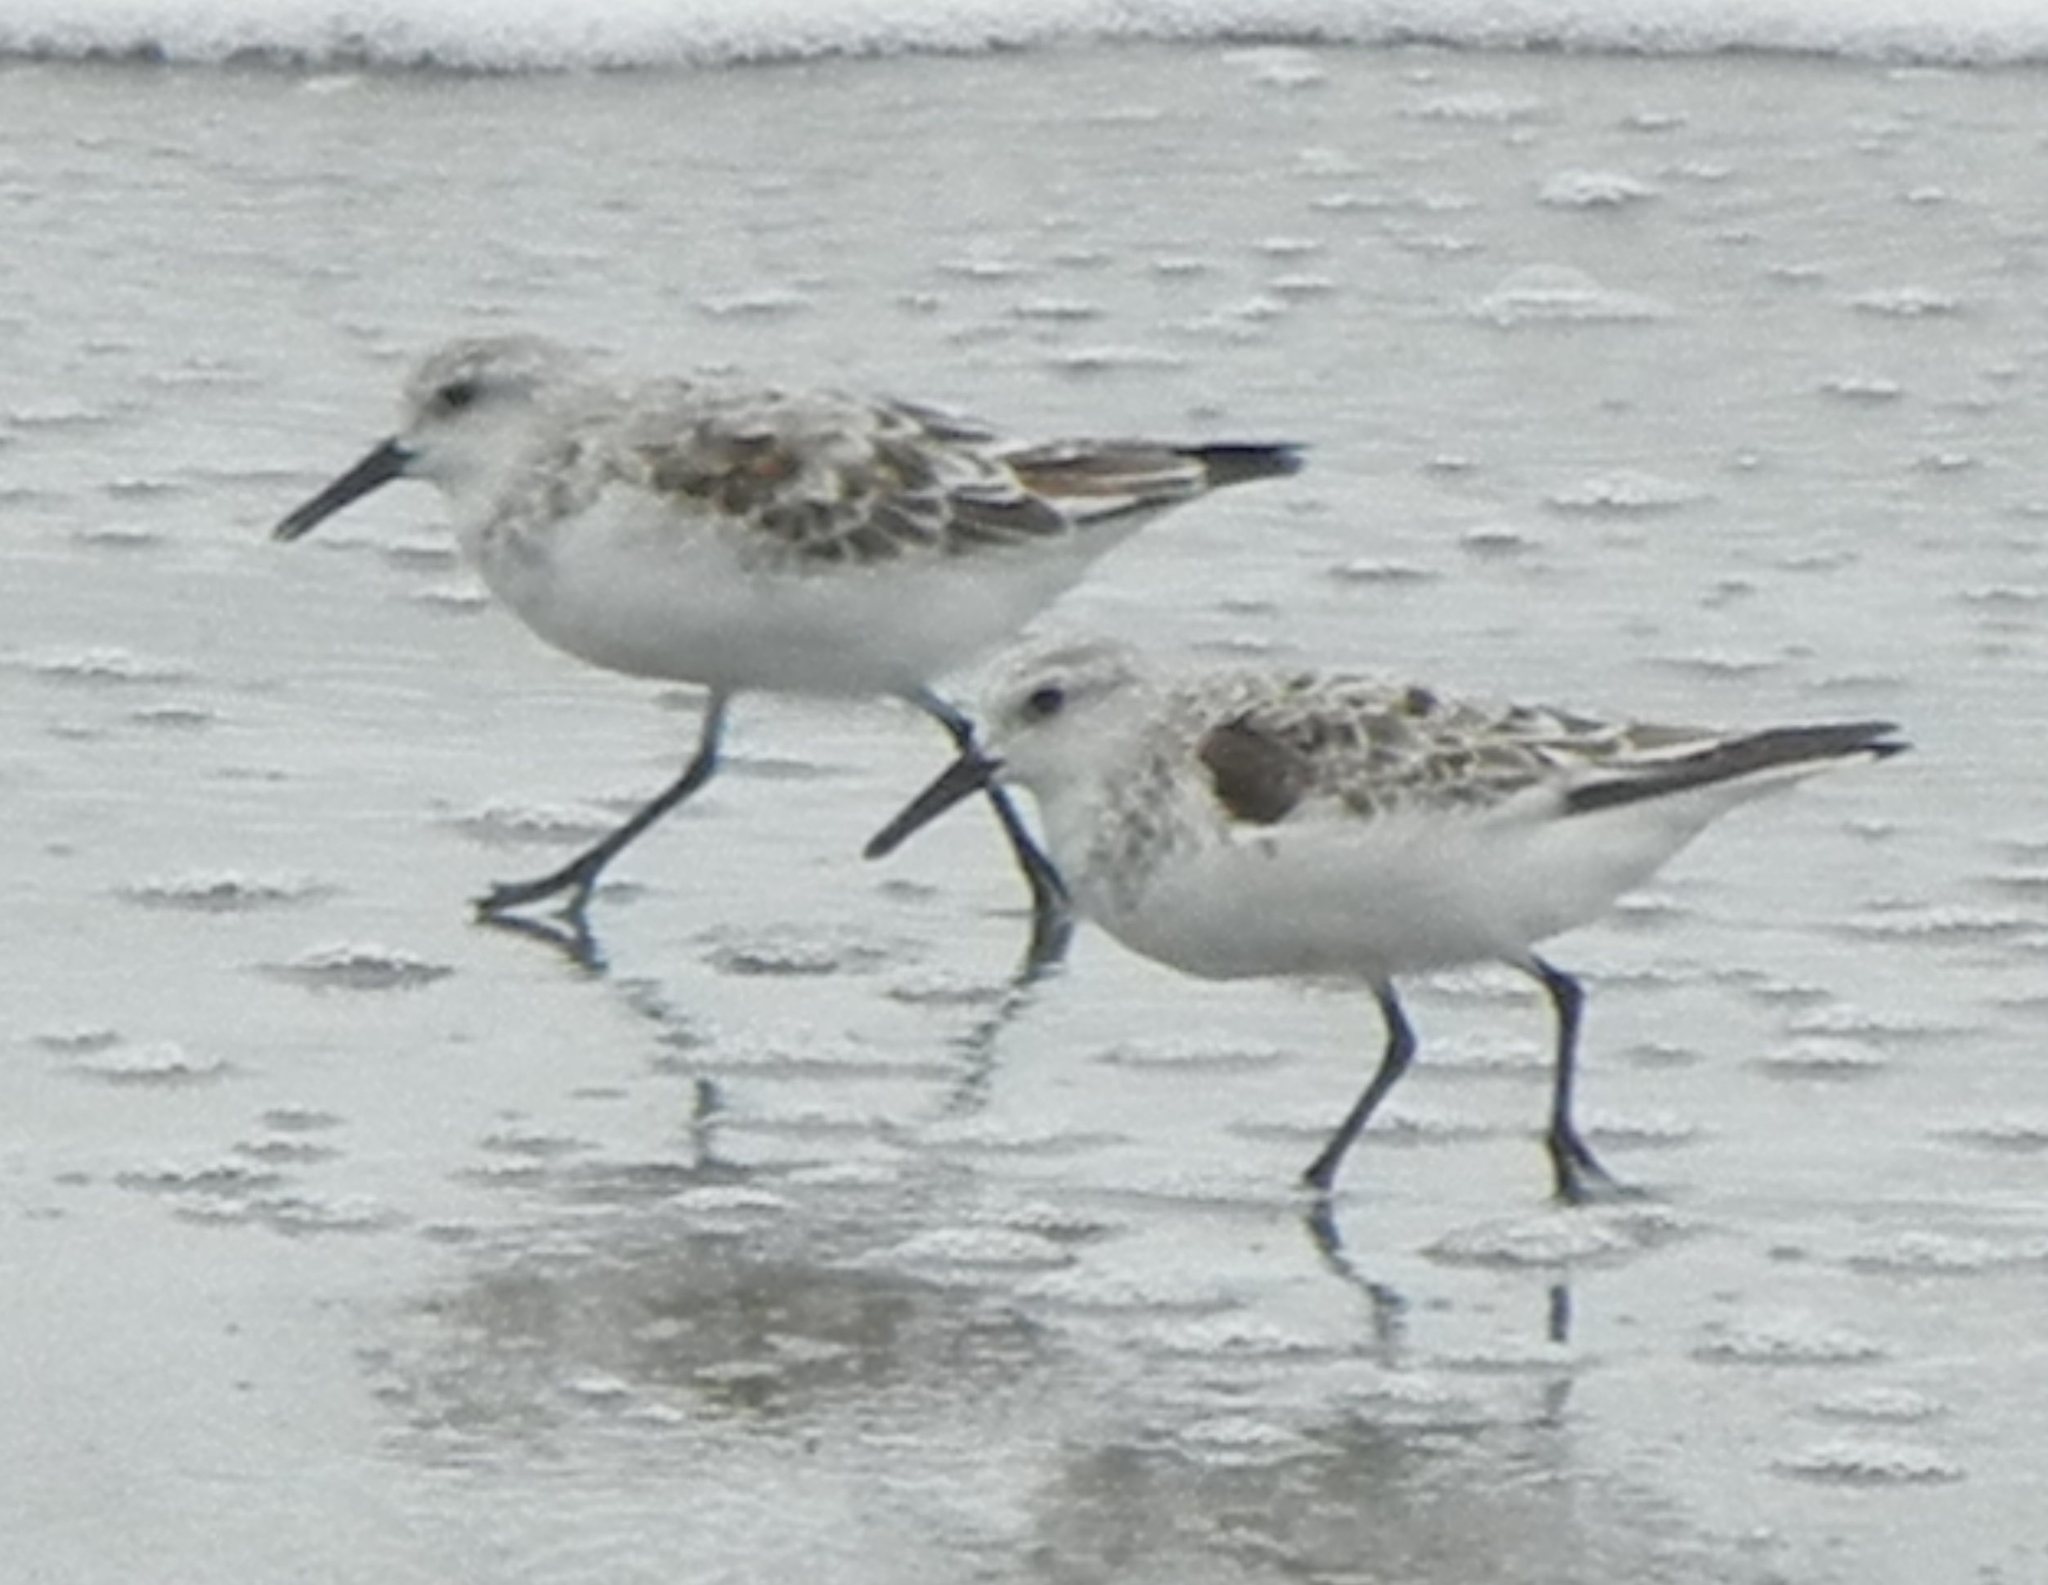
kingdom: Animalia
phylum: Chordata
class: Aves
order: Charadriiformes
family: Scolopacidae
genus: Calidris
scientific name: Calidris alba
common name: Sanderling
